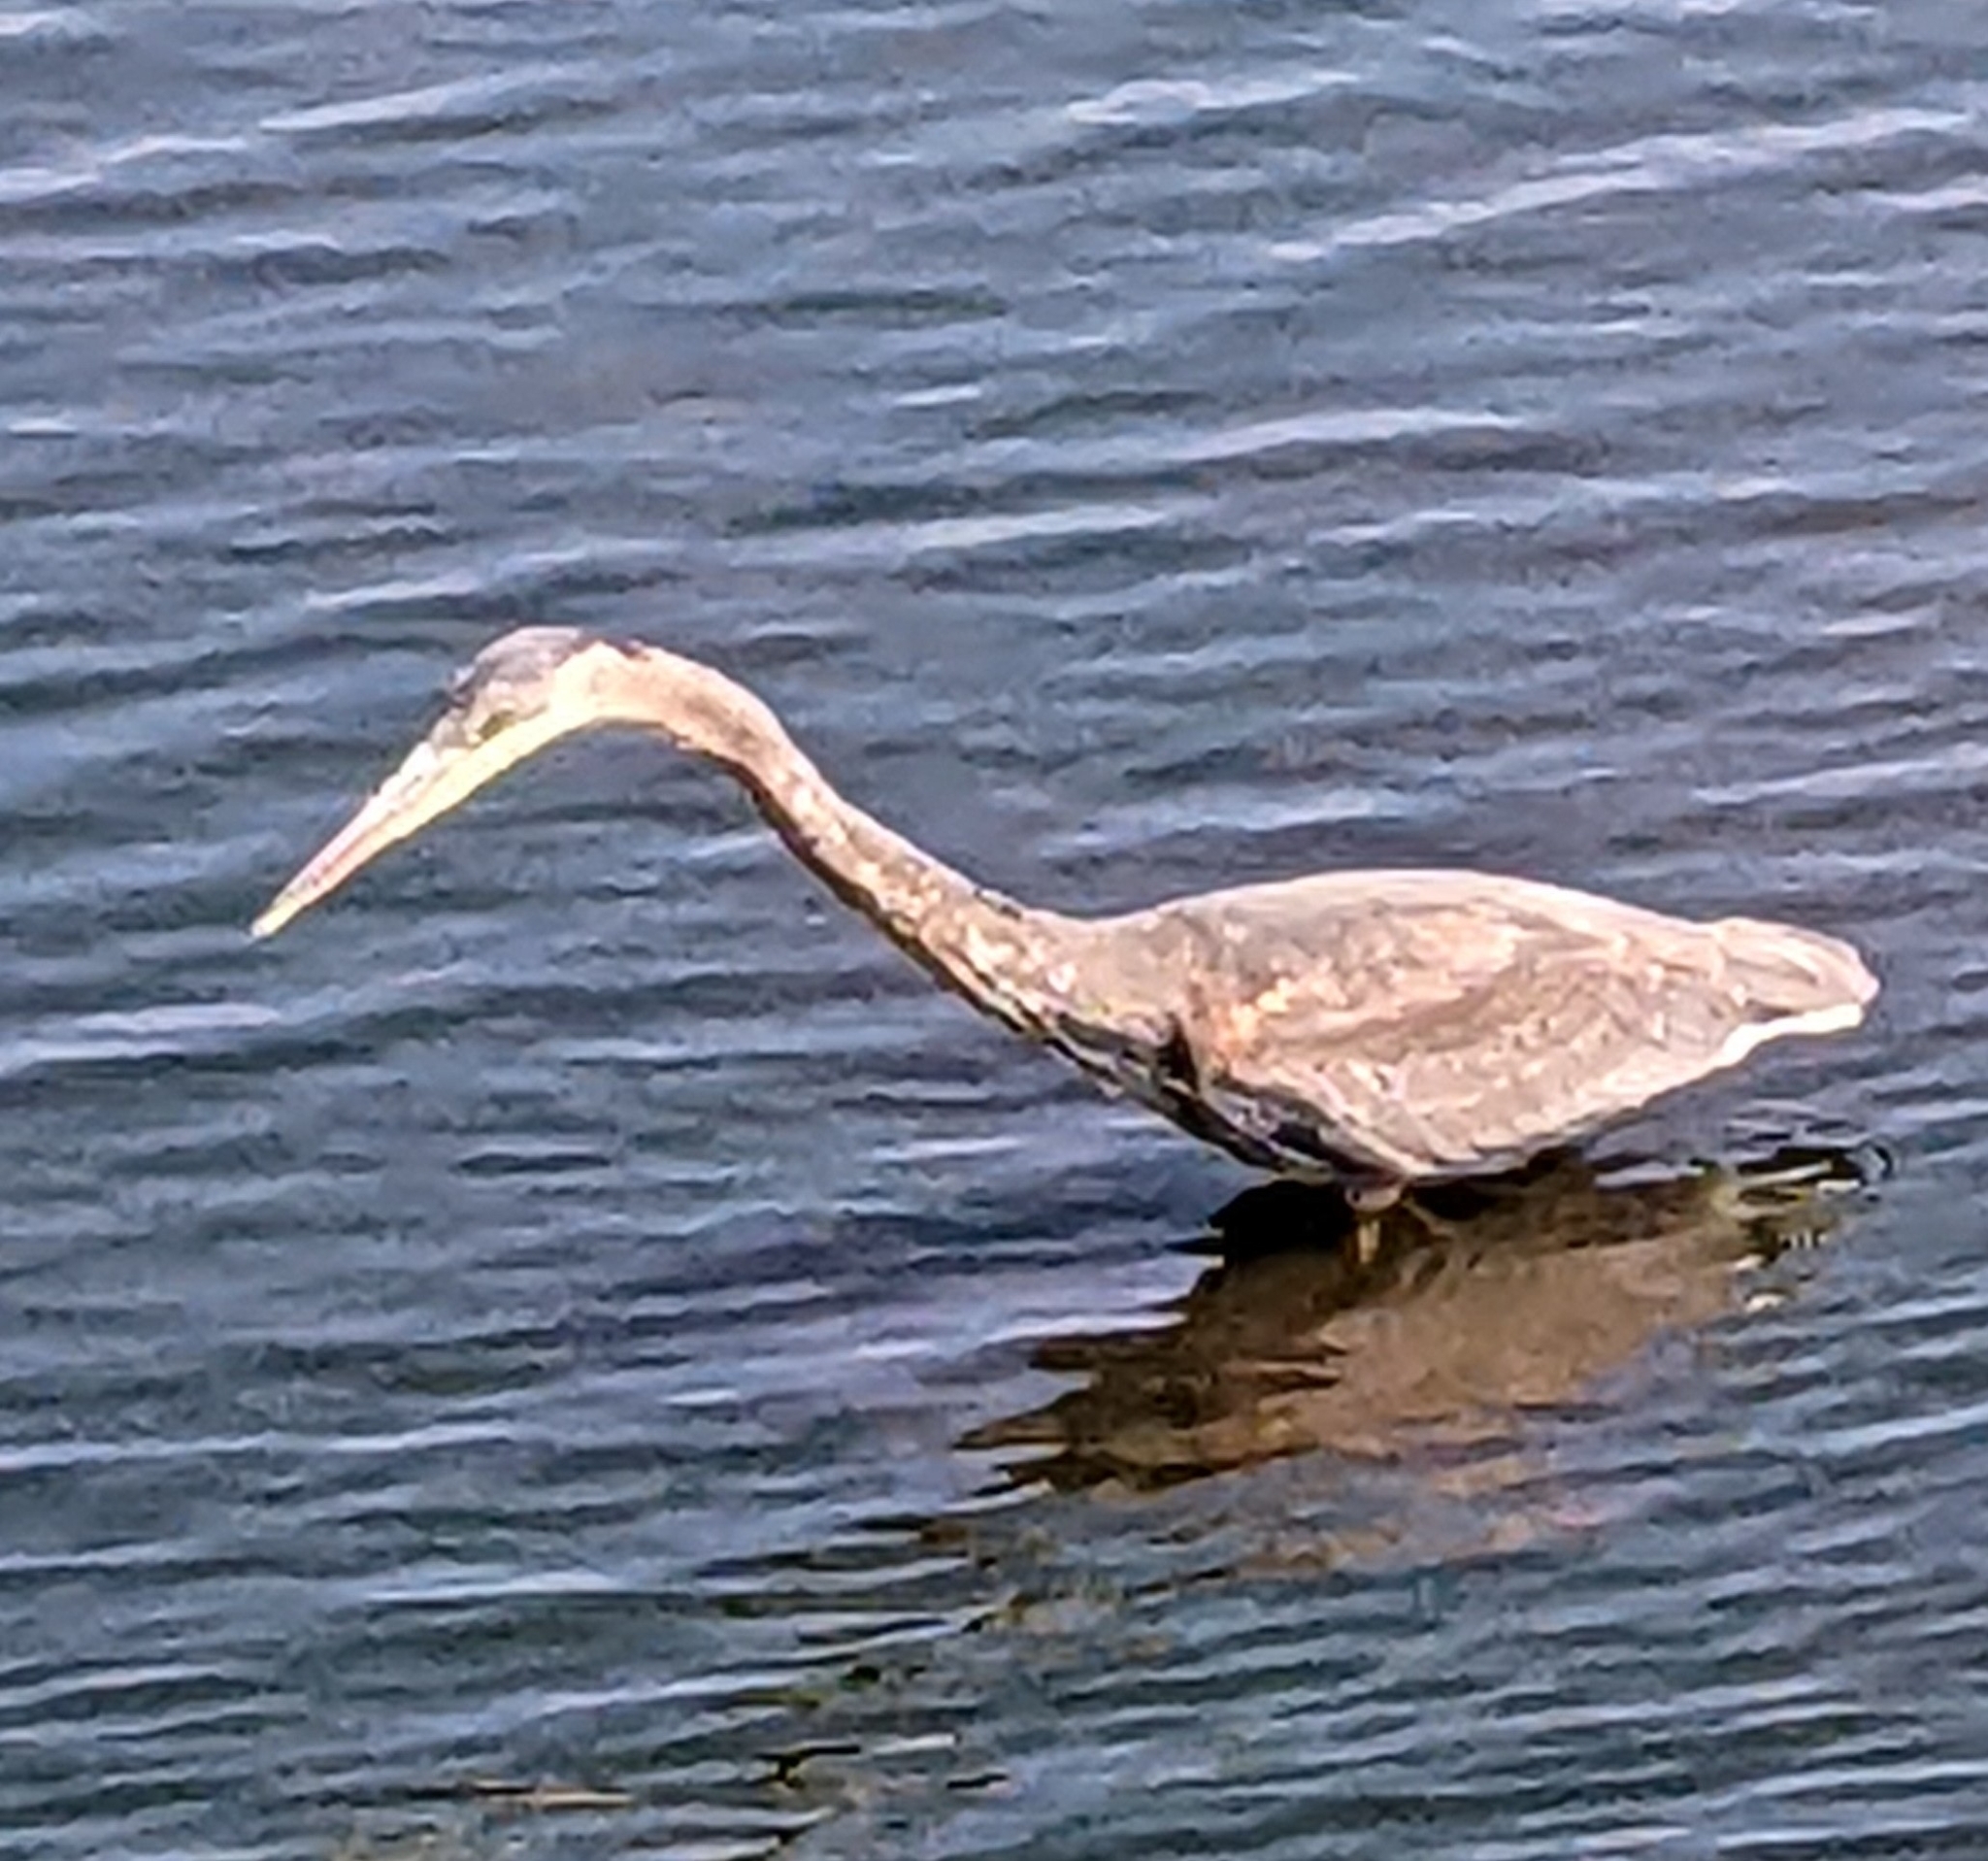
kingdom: Animalia
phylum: Chordata
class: Aves
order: Pelecaniformes
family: Ardeidae
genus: Ardea
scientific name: Ardea herodias
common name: Great blue heron
